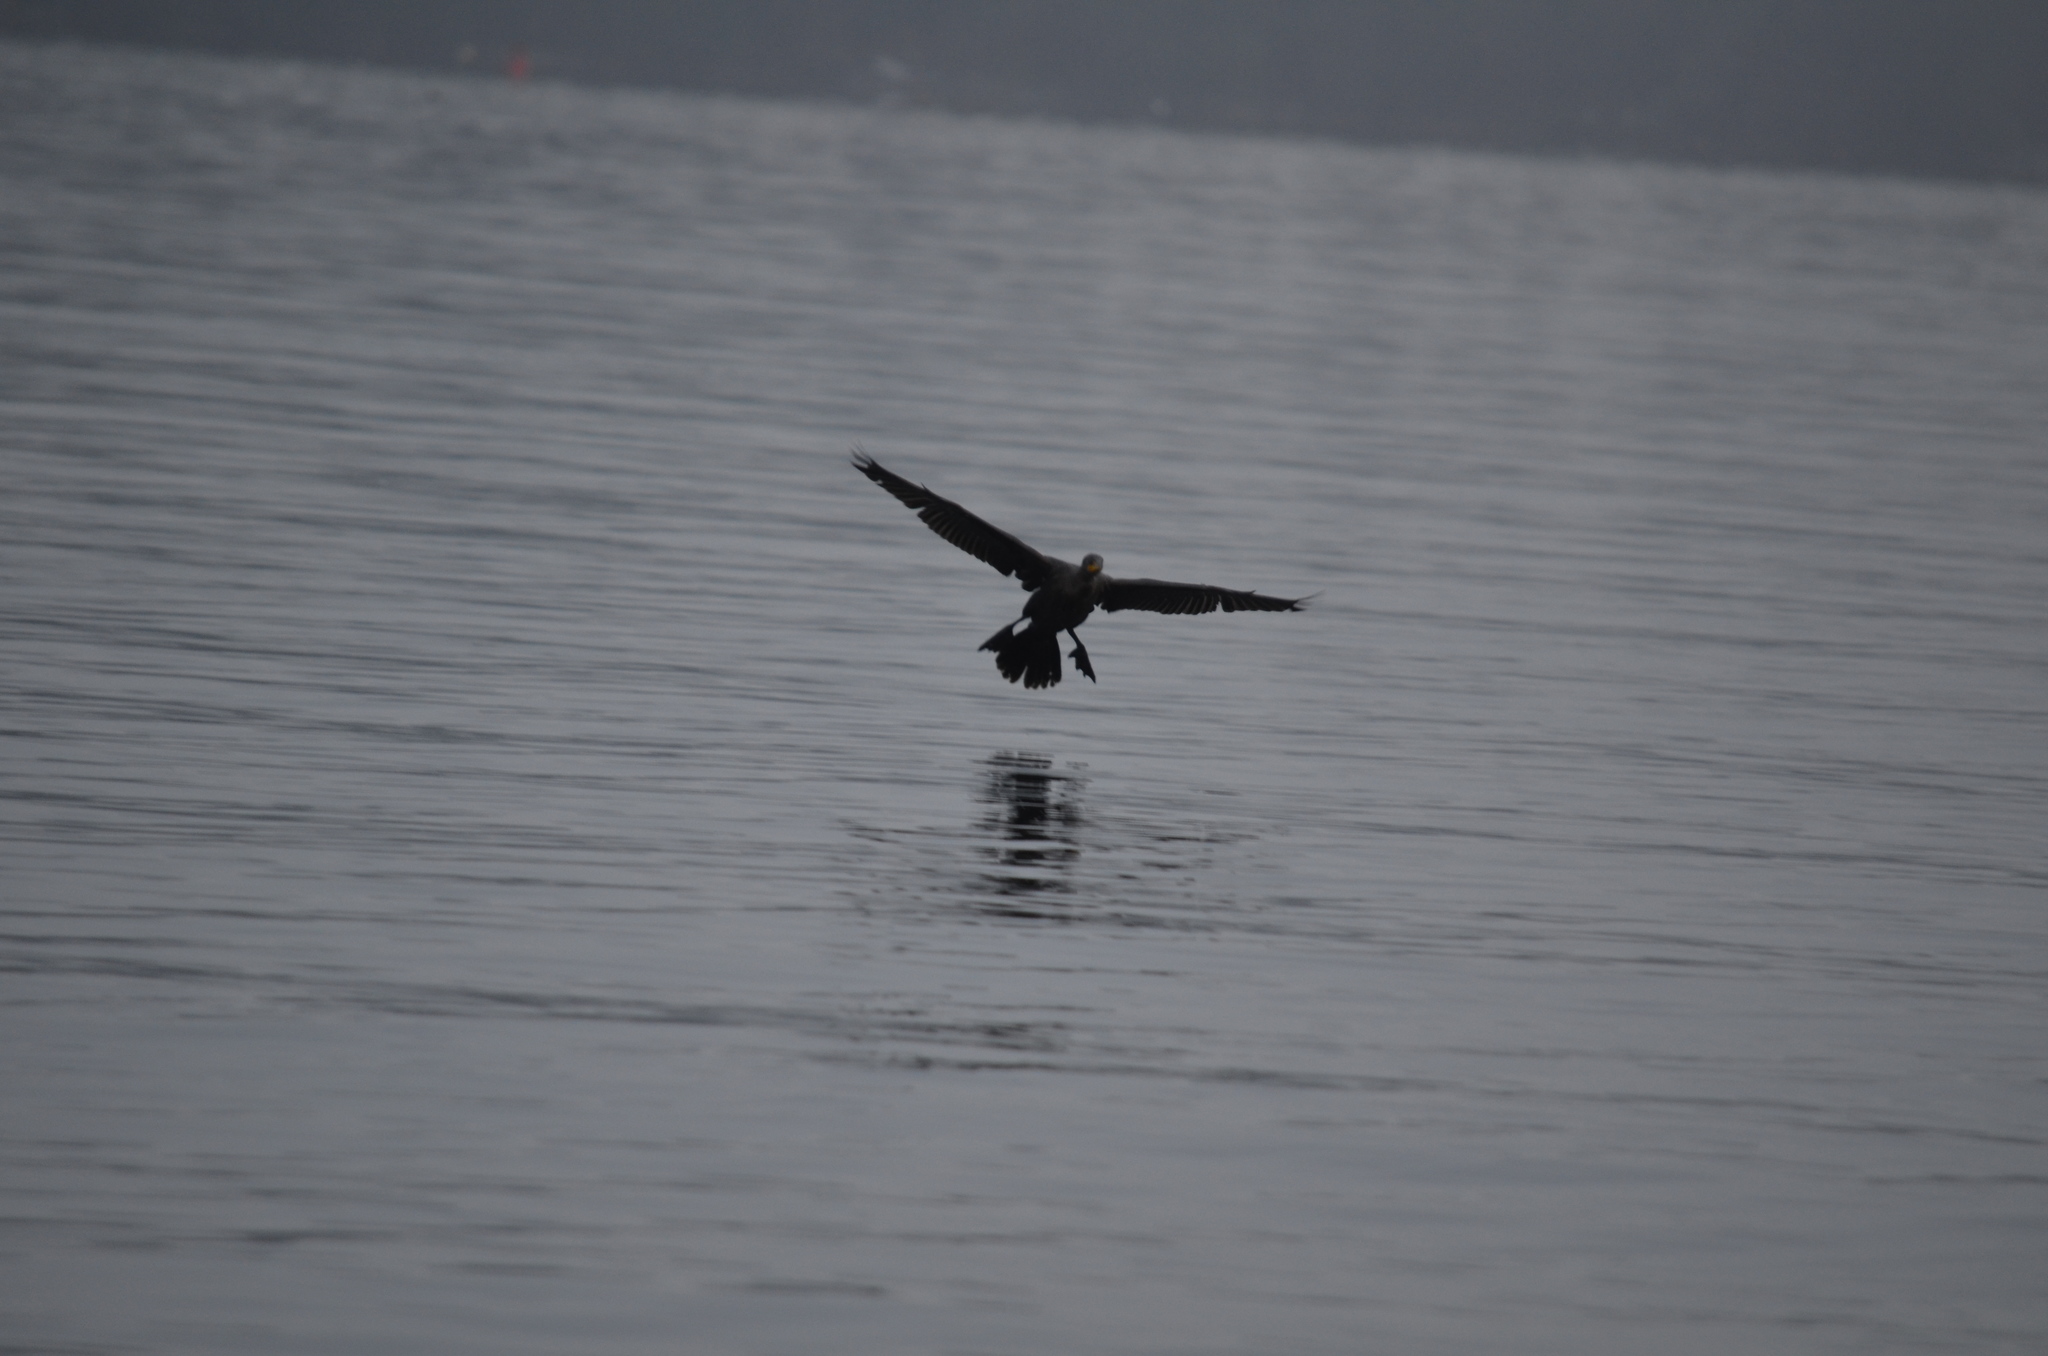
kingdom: Animalia
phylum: Chordata
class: Aves
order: Suliformes
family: Phalacrocoracidae
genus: Phalacrocorax
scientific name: Phalacrocorax auritus
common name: Double-crested cormorant
